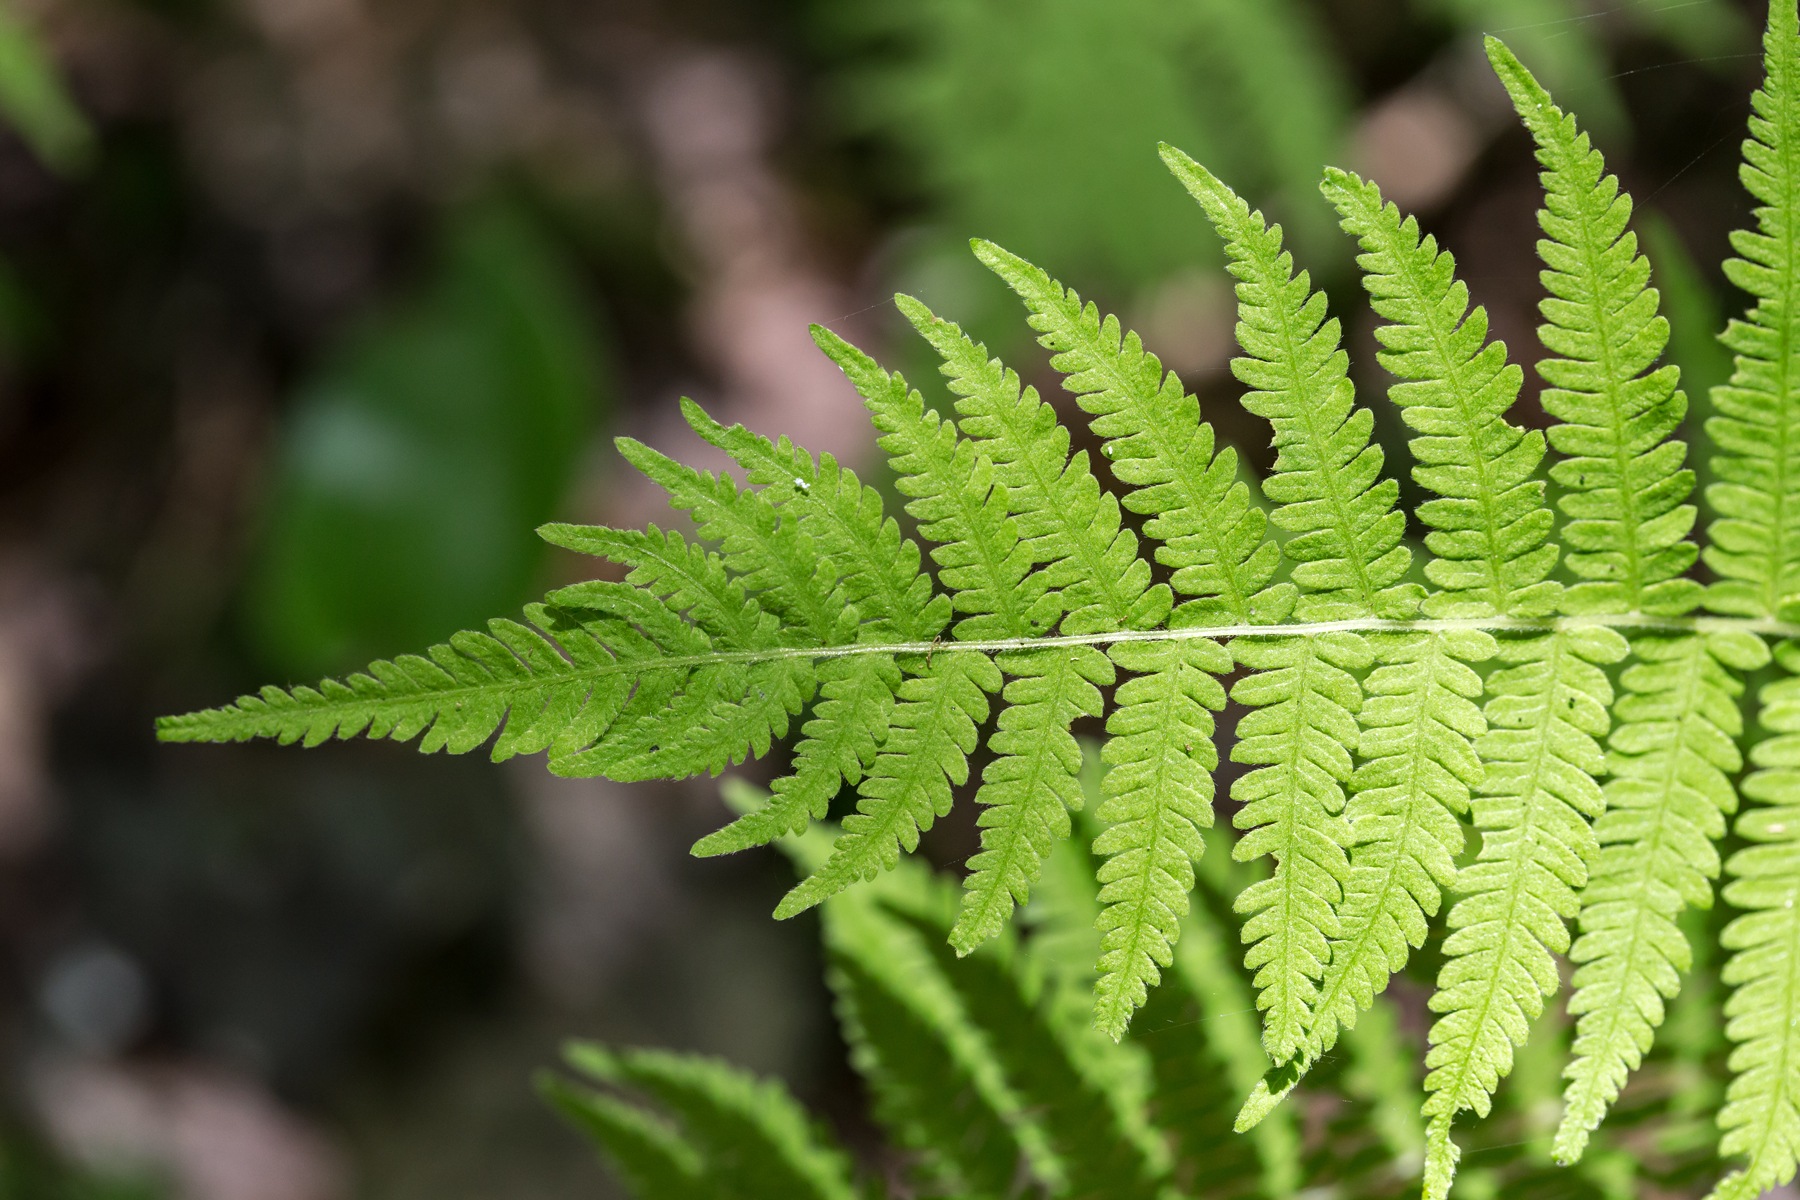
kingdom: Plantae
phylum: Tracheophyta
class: Polypodiopsida
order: Polypodiales
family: Thelypteridaceae
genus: Amauropelta
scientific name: Amauropelta noveboracensis
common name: New york fern
